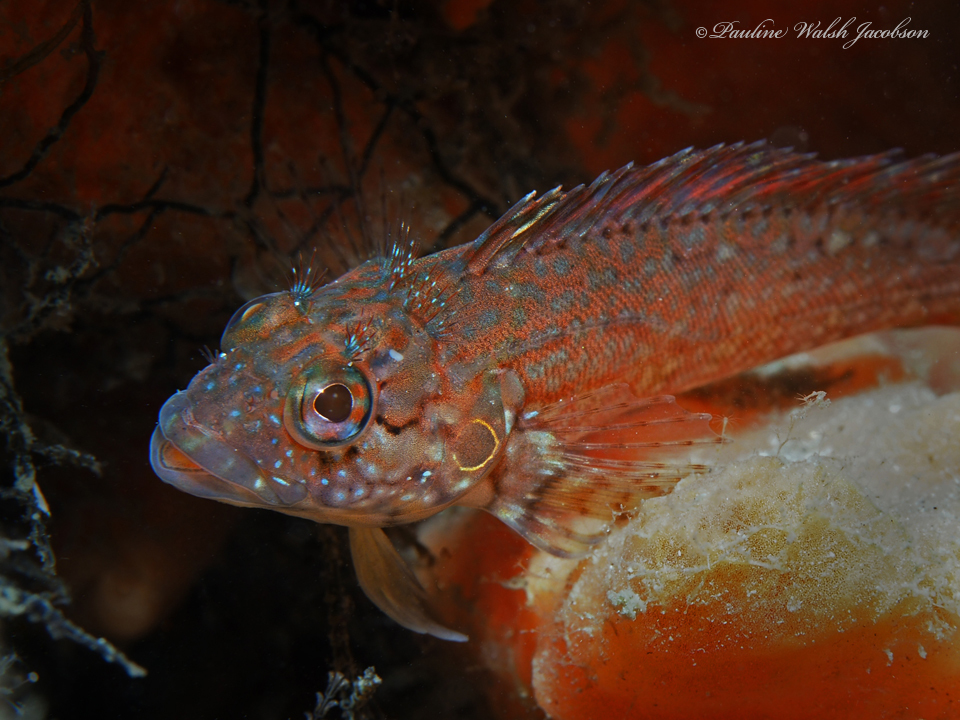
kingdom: Animalia
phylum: Chordata
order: Perciformes
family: Labrisomidae
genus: Labrisomus
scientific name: Labrisomus conditus
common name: Masquerader hairy blenny
